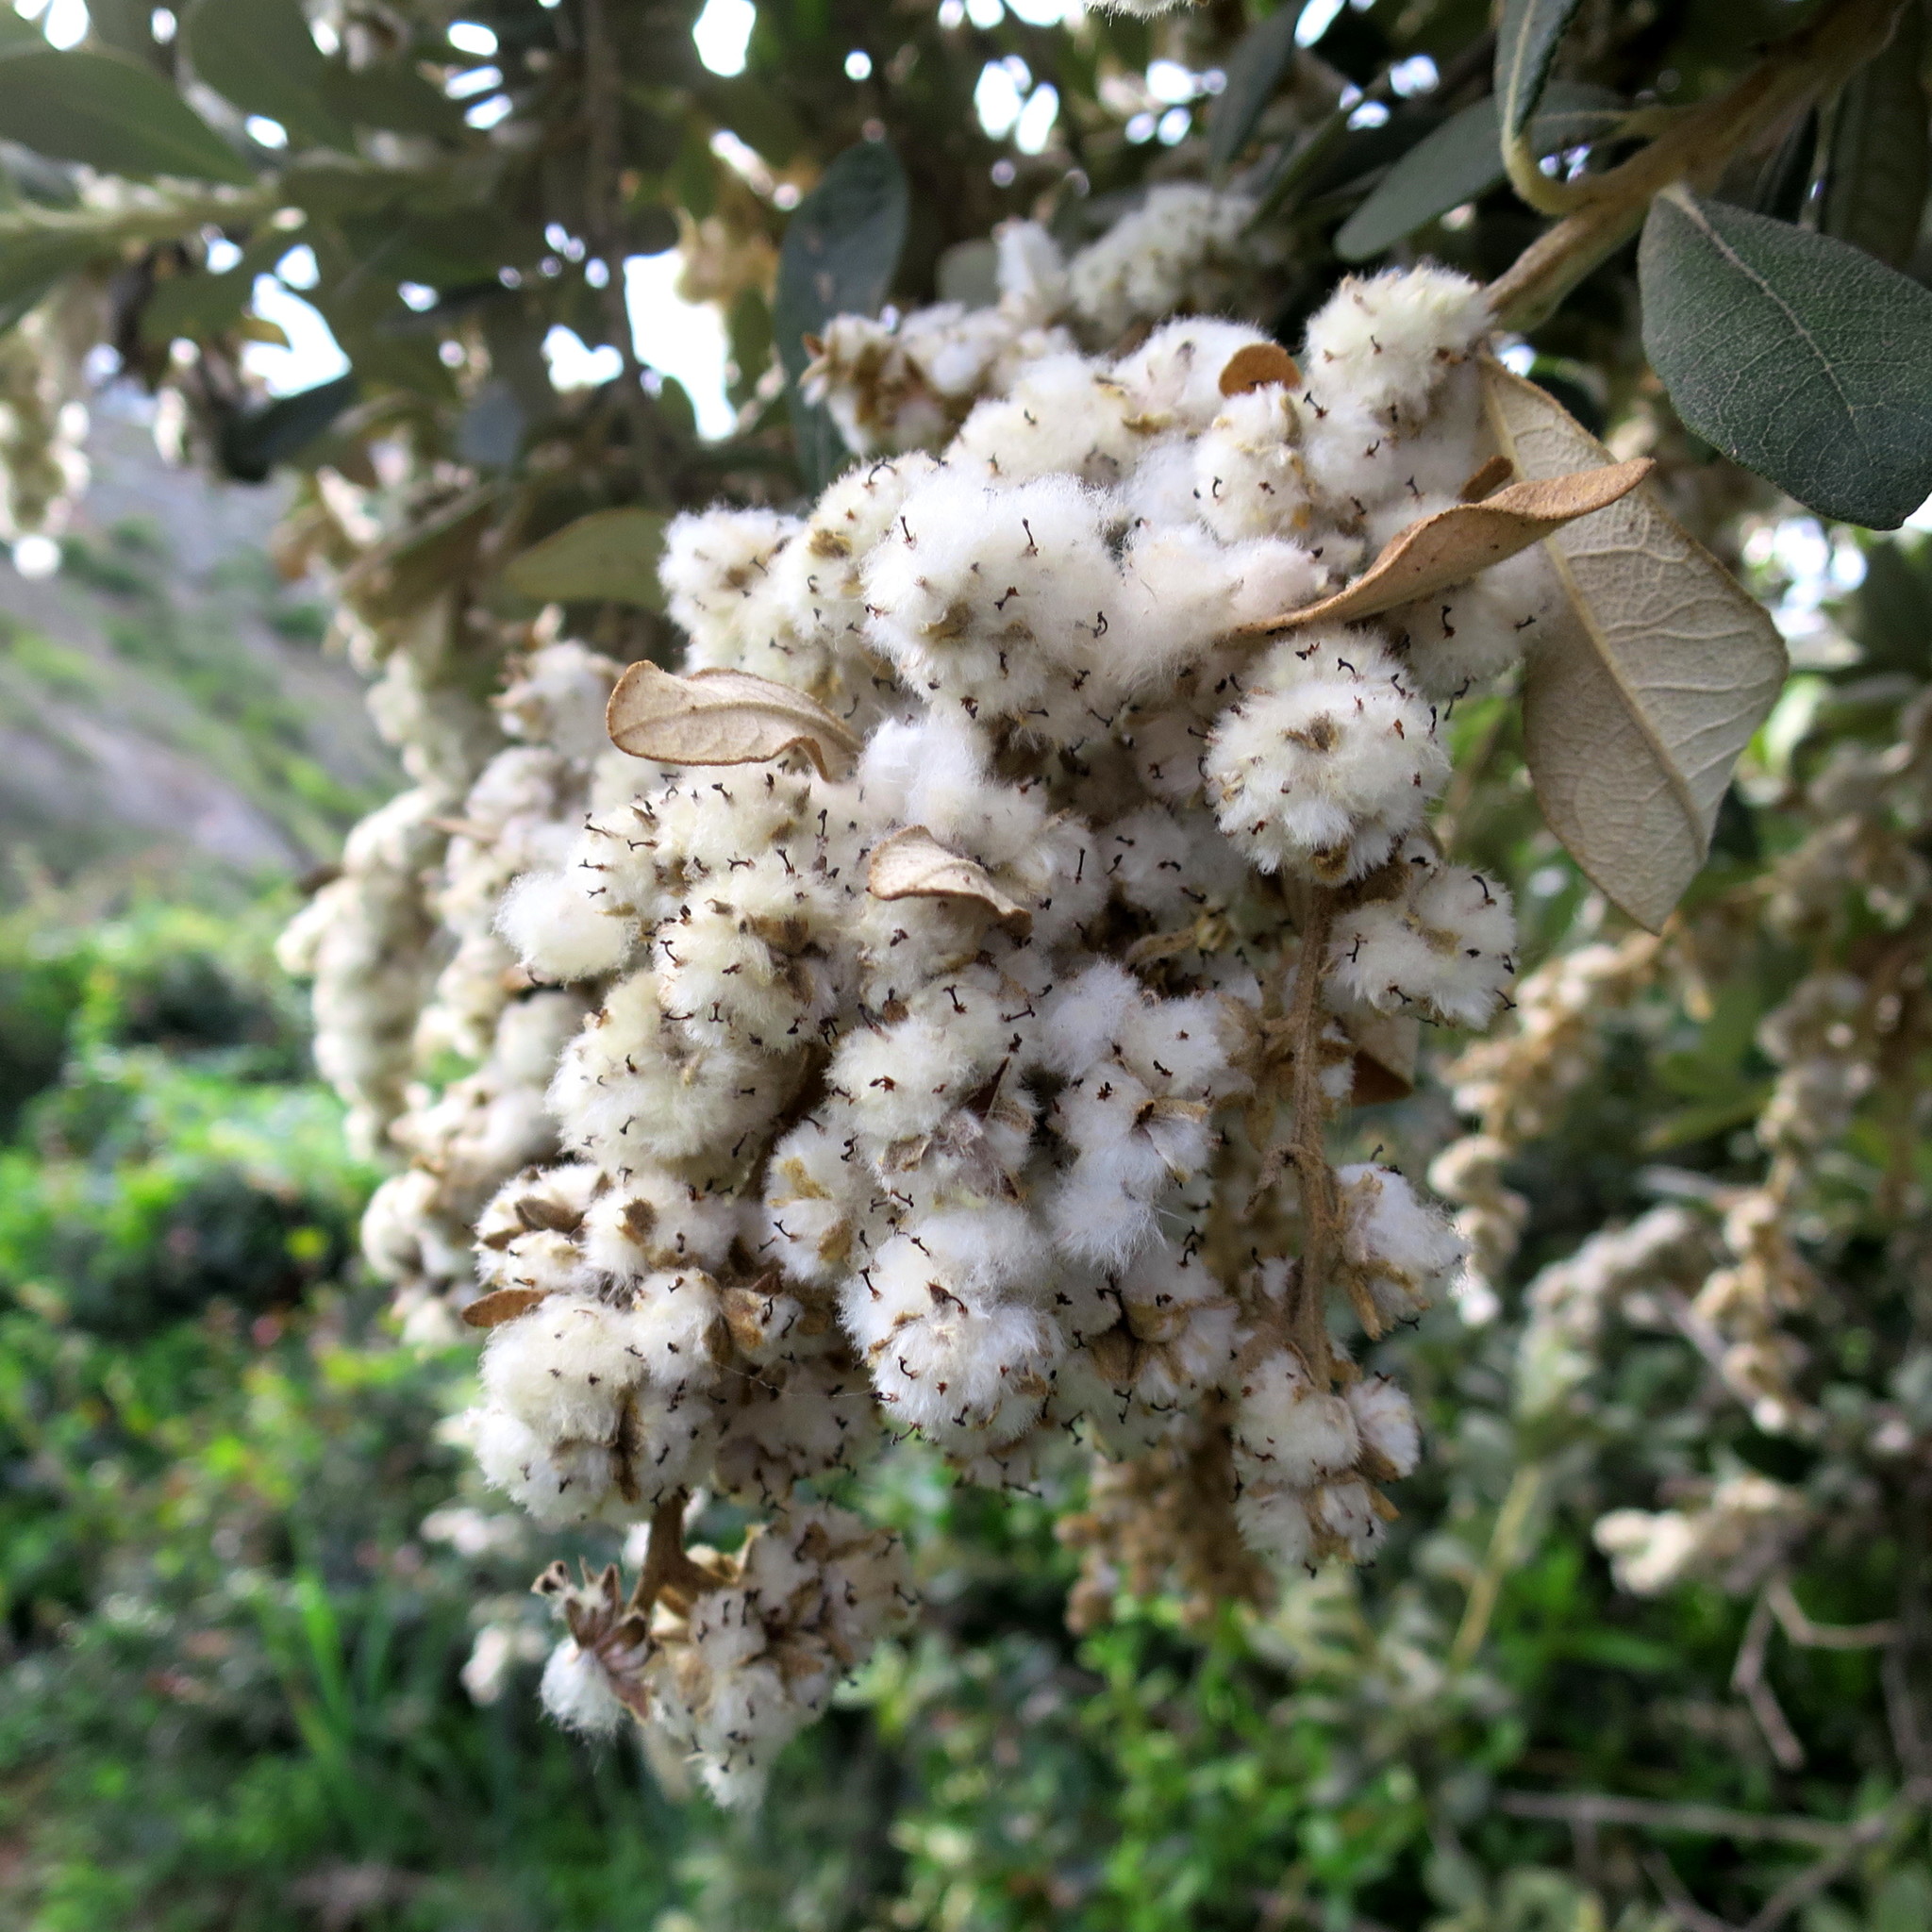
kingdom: Plantae
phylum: Tracheophyta
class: Magnoliopsida
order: Asterales
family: Asteraceae
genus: Tarchonanthus
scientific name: Tarchonanthus littoralis
